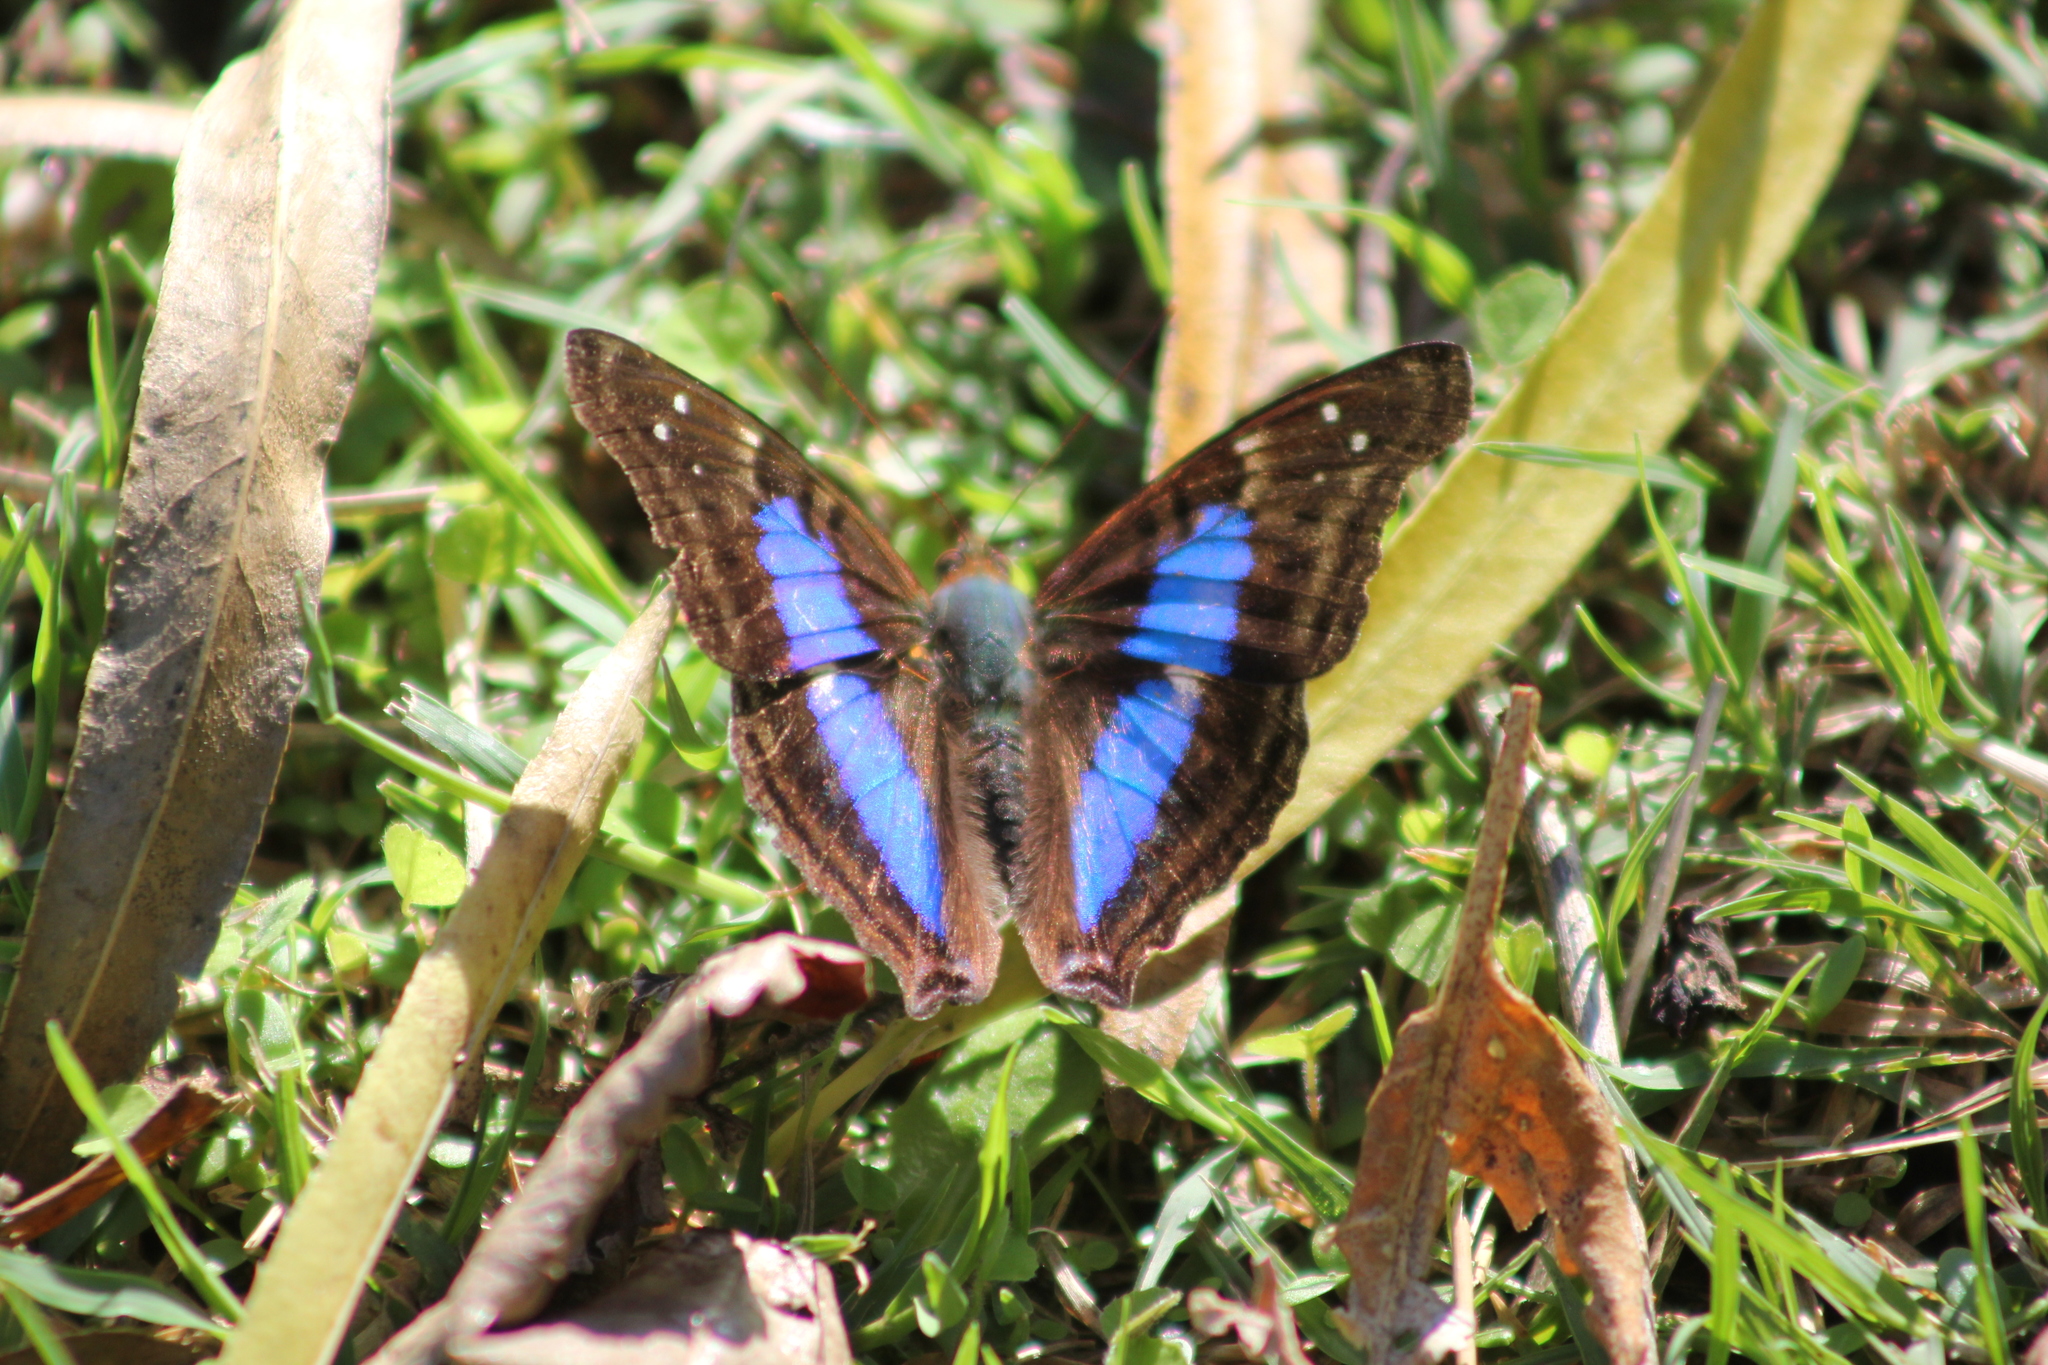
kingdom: Animalia
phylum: Arthropoda
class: Insecta
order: Lepidoptera
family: Nymphalidae
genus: Doxocopa
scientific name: Doxocopa laurentia
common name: Turquoise emperor
